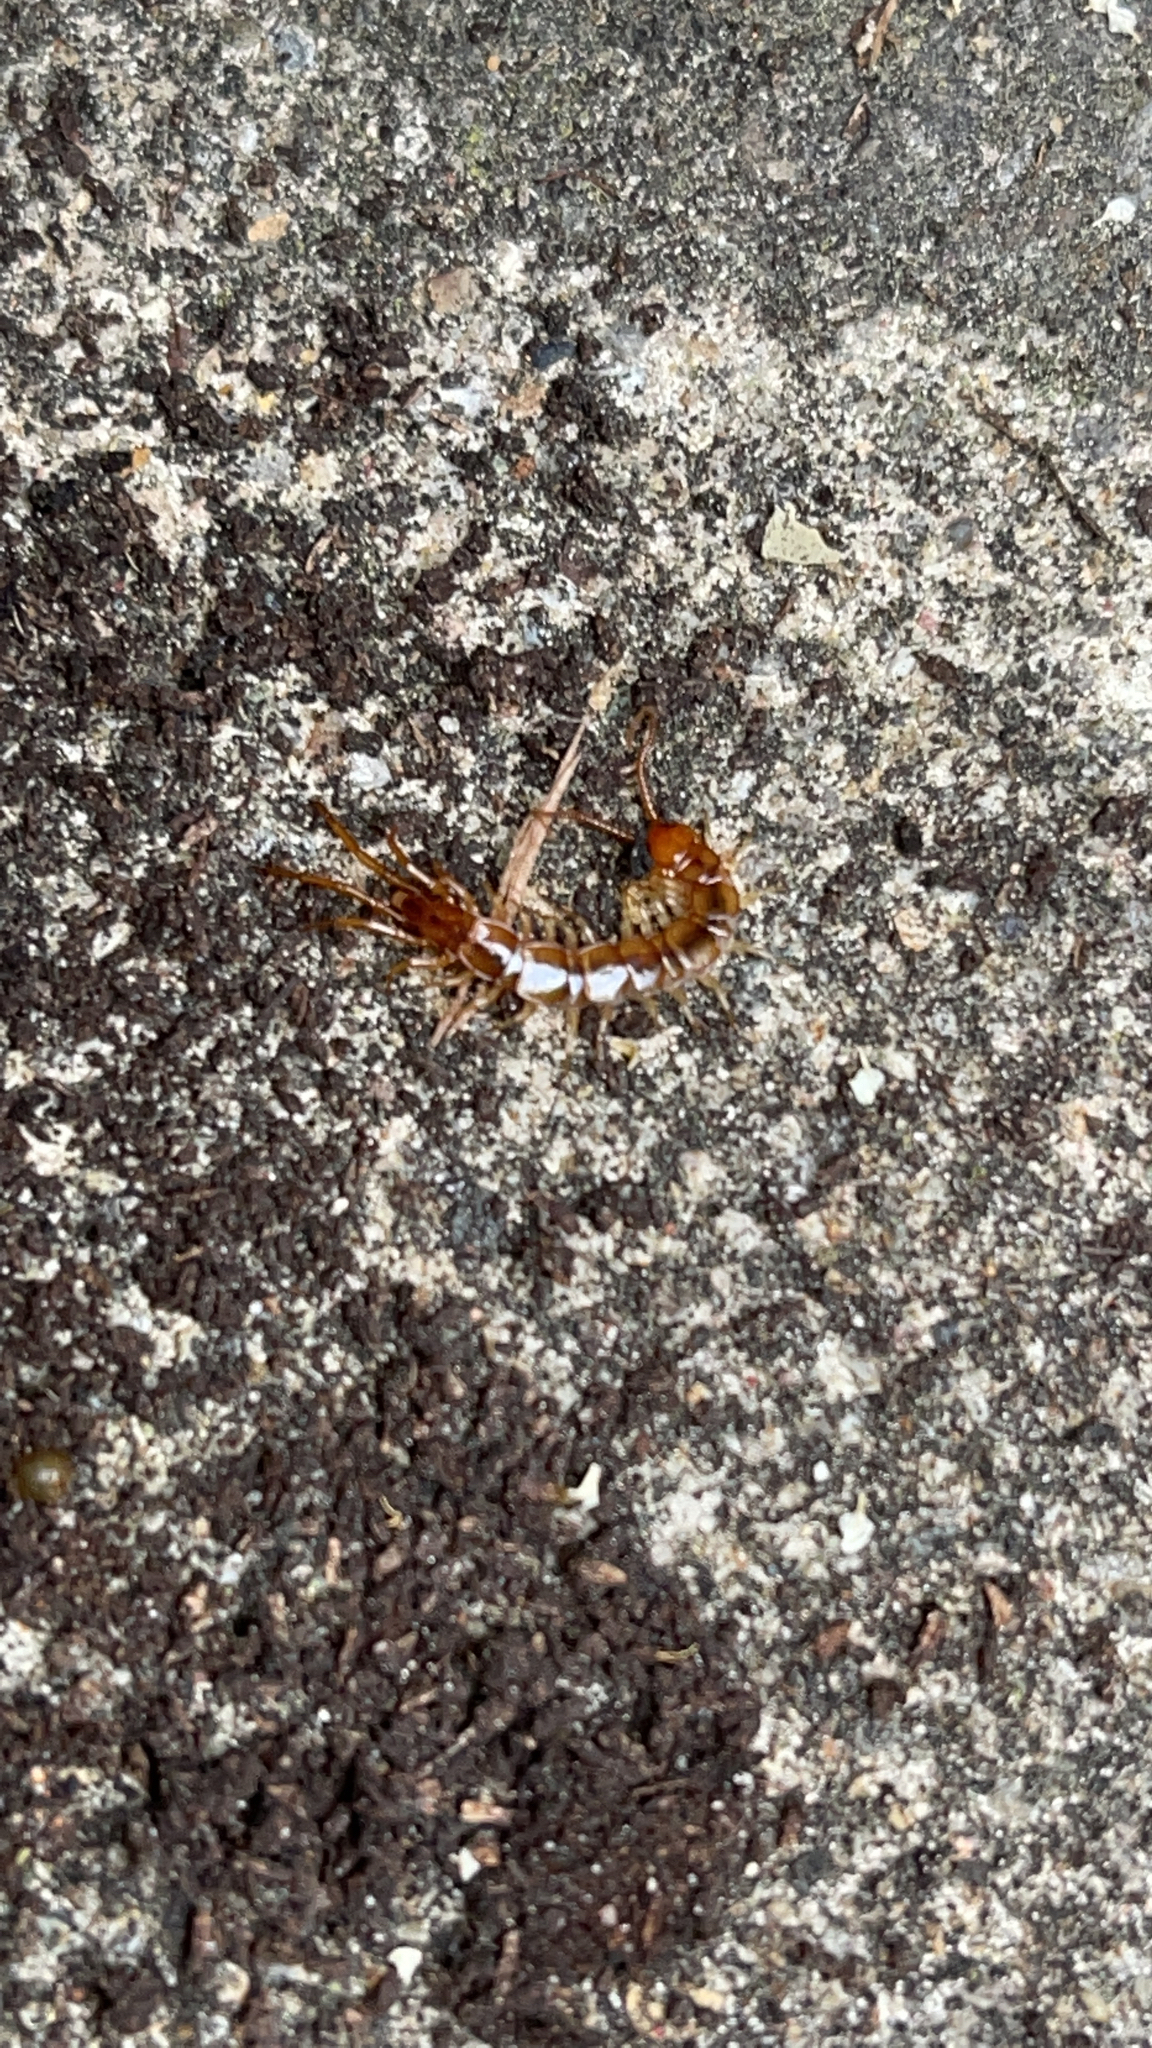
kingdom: Animalia
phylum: Arthropoda
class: Chilopoda
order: Lithobiomorpha
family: Lithobiidae
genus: Lithobius
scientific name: Lithobius forficatus
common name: Centipede
